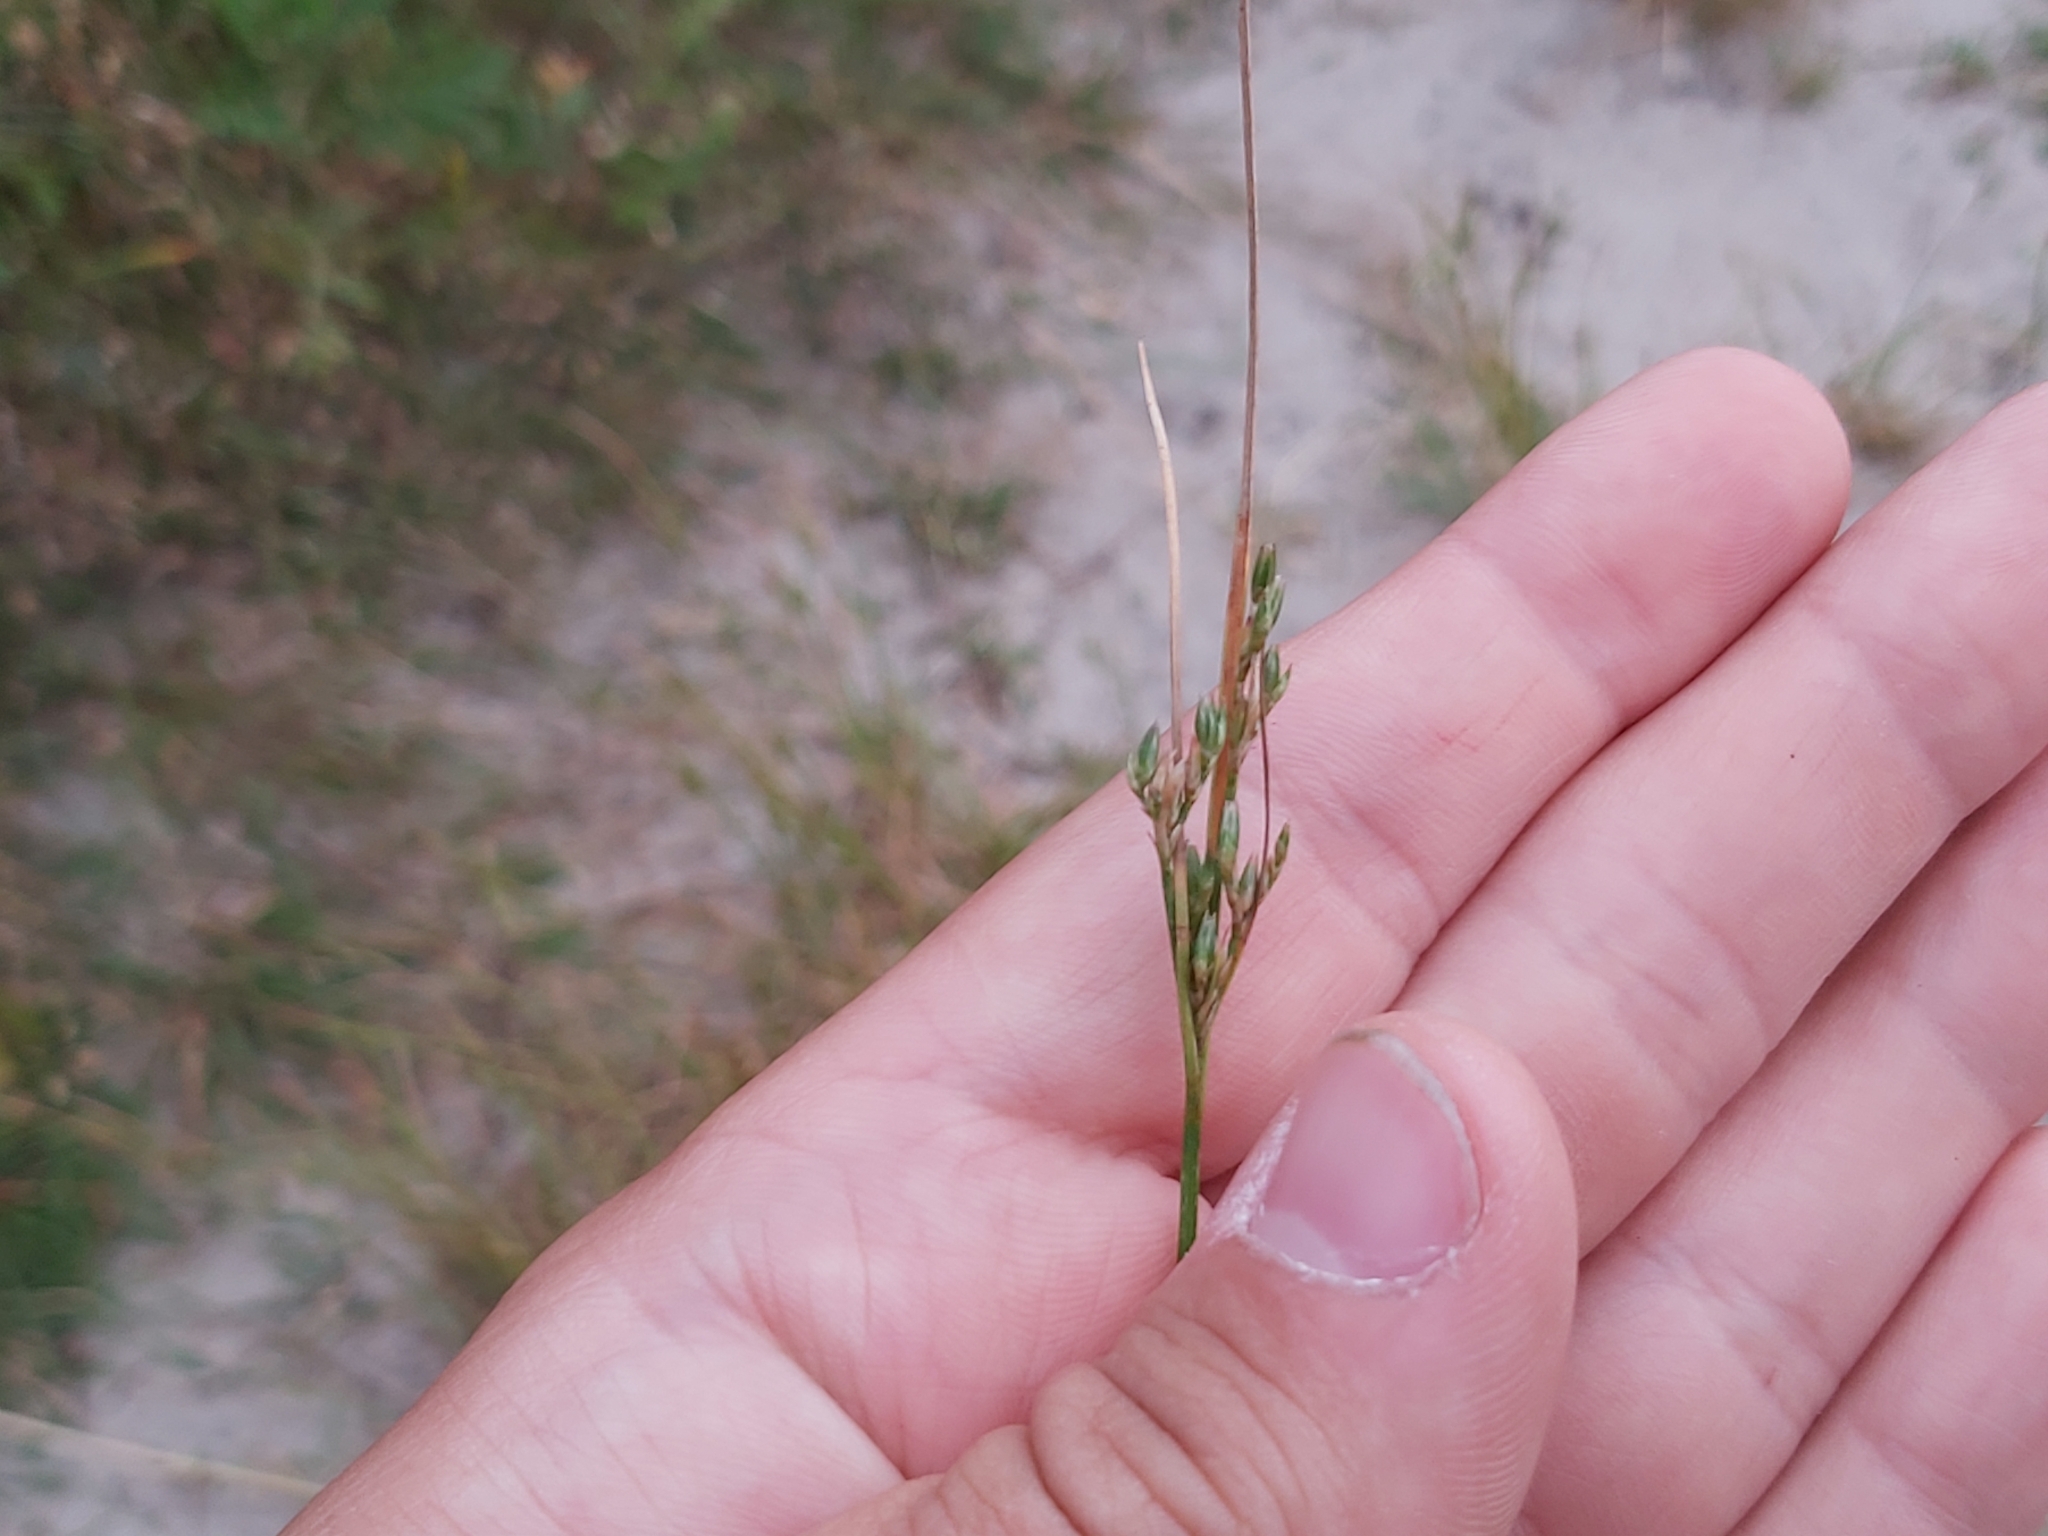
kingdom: Plantae
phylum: Tracheophyta
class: Liliopsida
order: Poales
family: Juncaceae
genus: Juncus
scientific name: Juncus tenuis
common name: Slender rush
